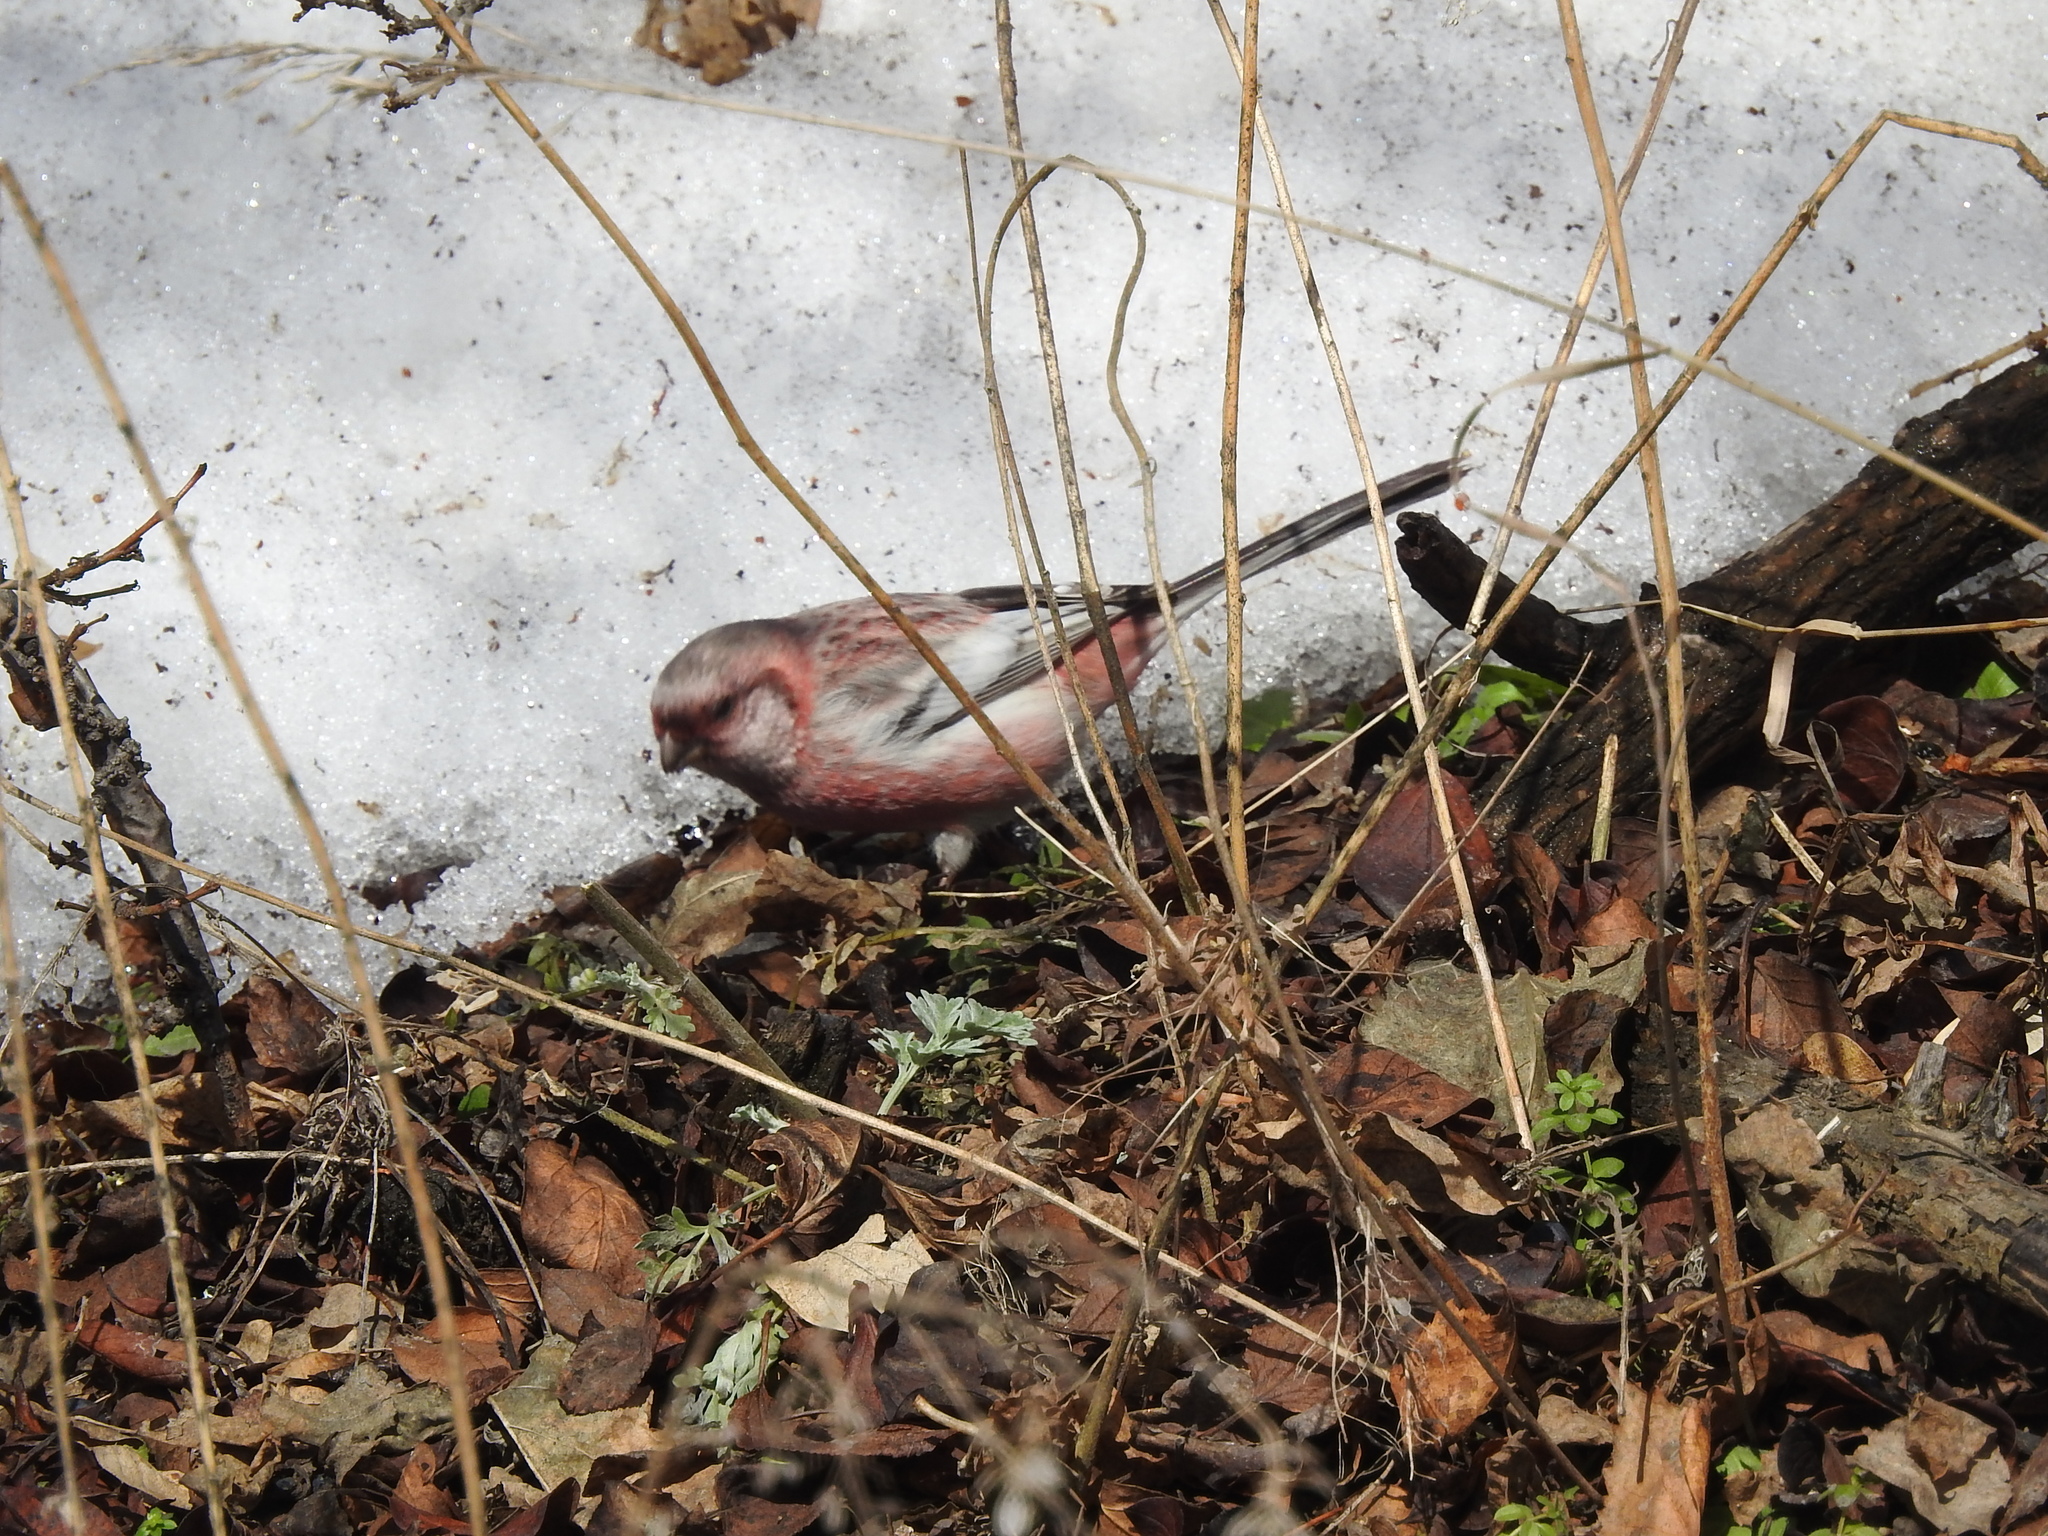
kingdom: Animalia
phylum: Chordata
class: Aves
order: Passeriformes
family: Fringillidae
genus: Carpodacus
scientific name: Carpodacus sibiricus
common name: Long-tailed rosefinch
